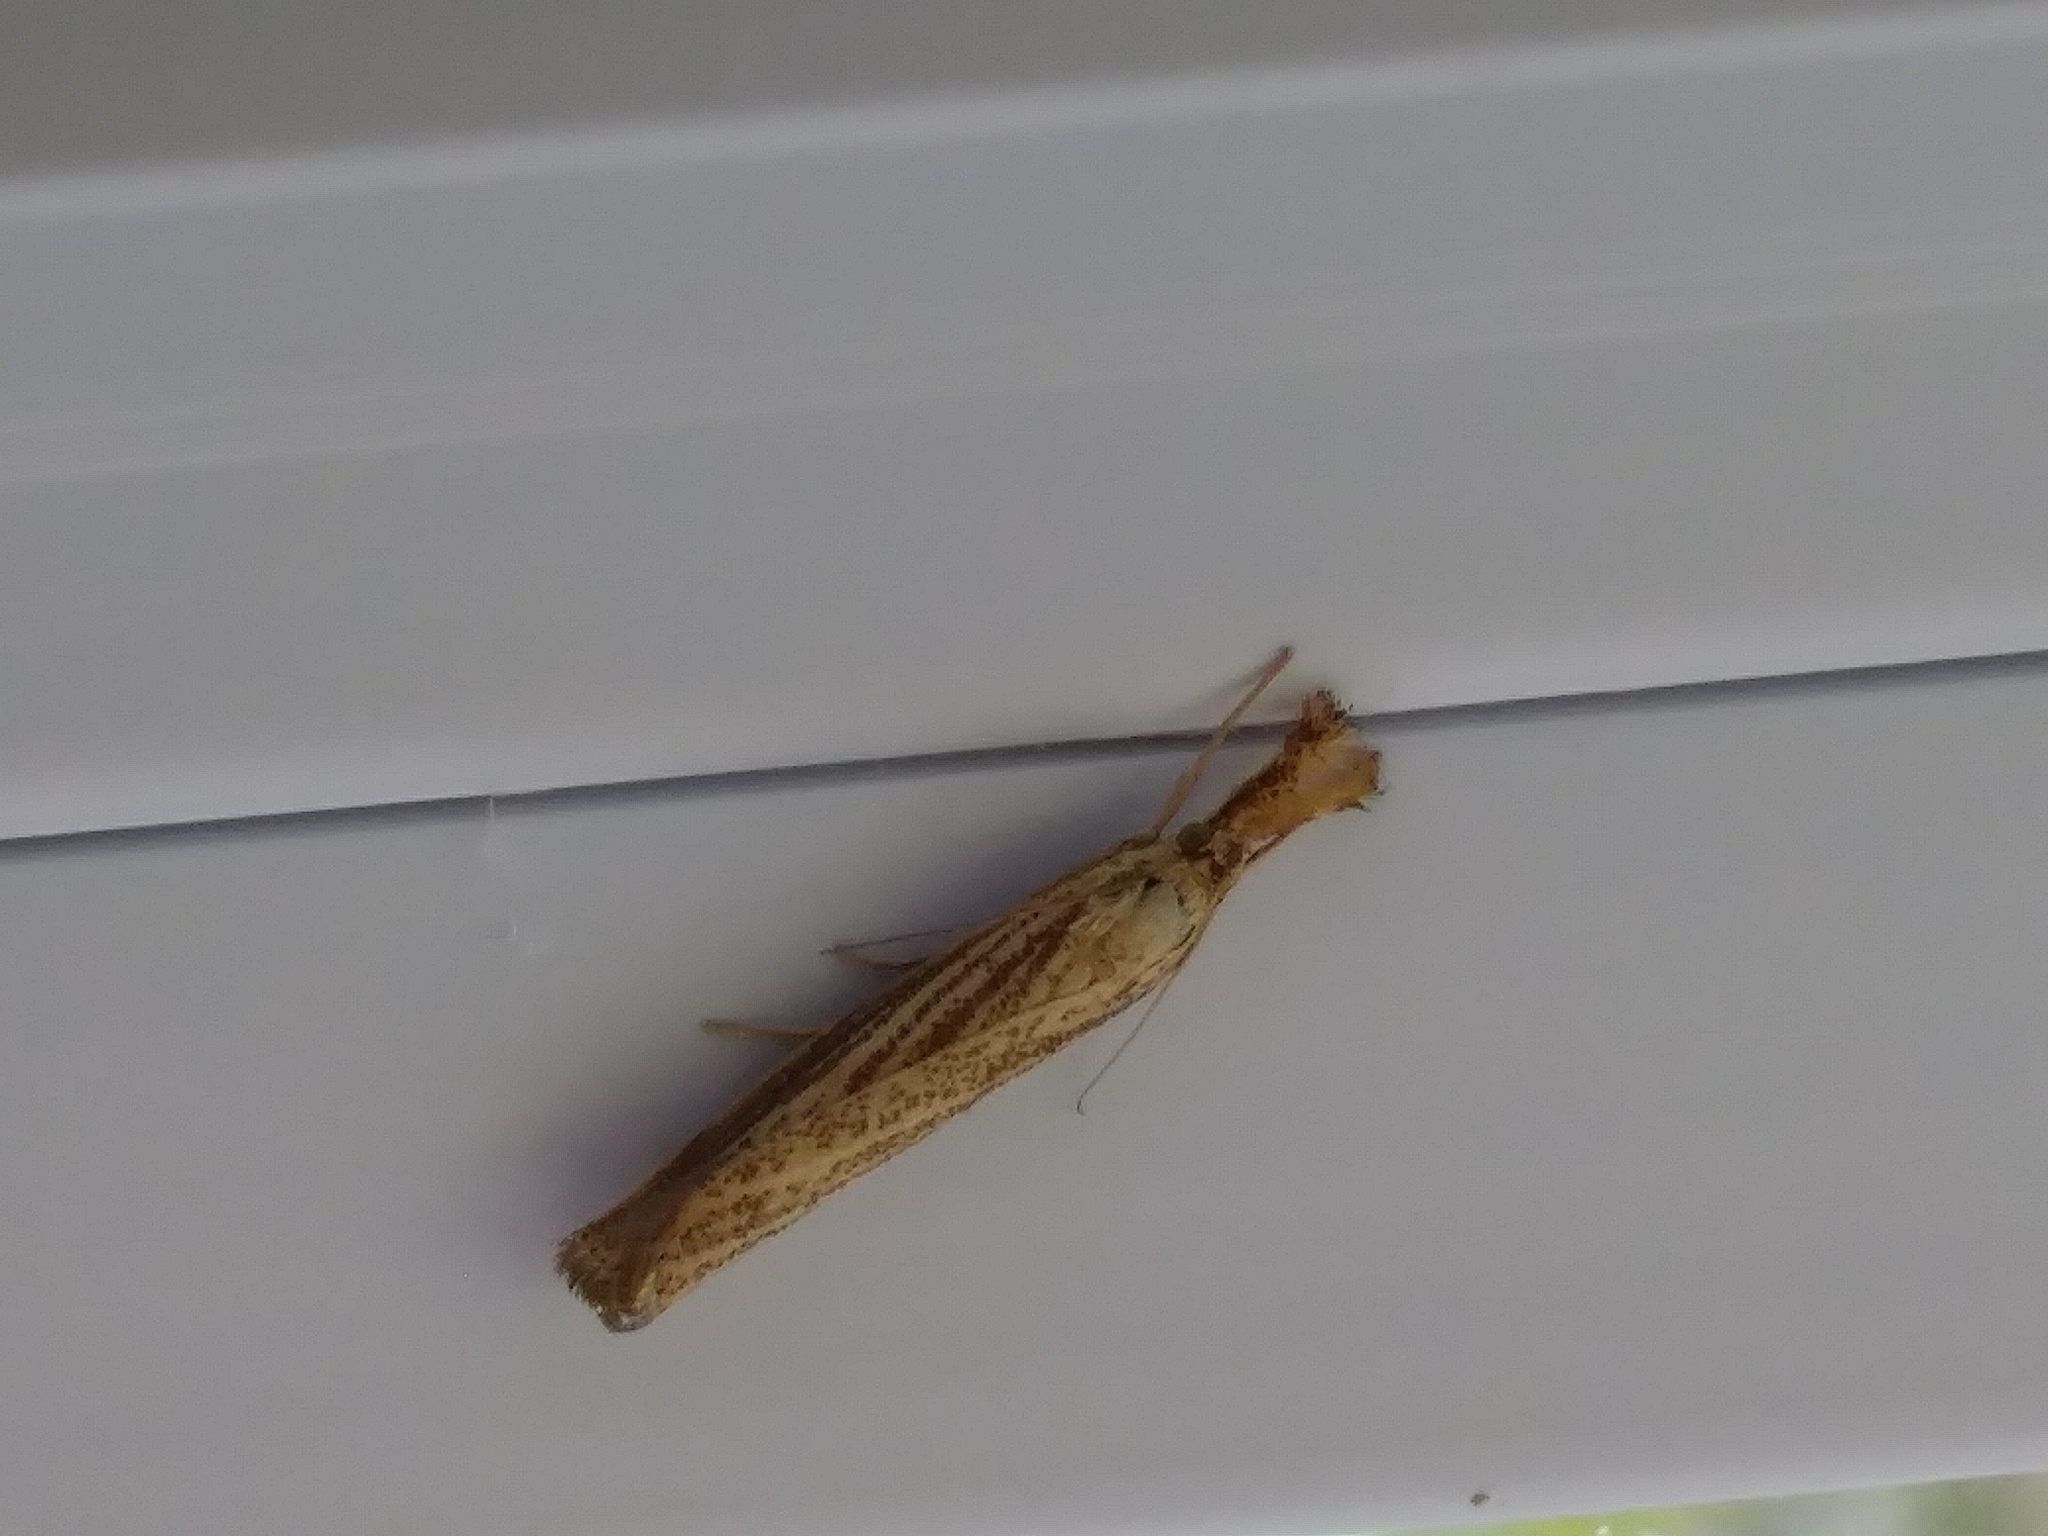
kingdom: Animalia
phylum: Arthropoda
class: Insecta
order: Lepidoptera
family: Crambidae
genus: Agriphila
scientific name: Agriphila vulgivagellus
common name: Vagabond crambus moth
